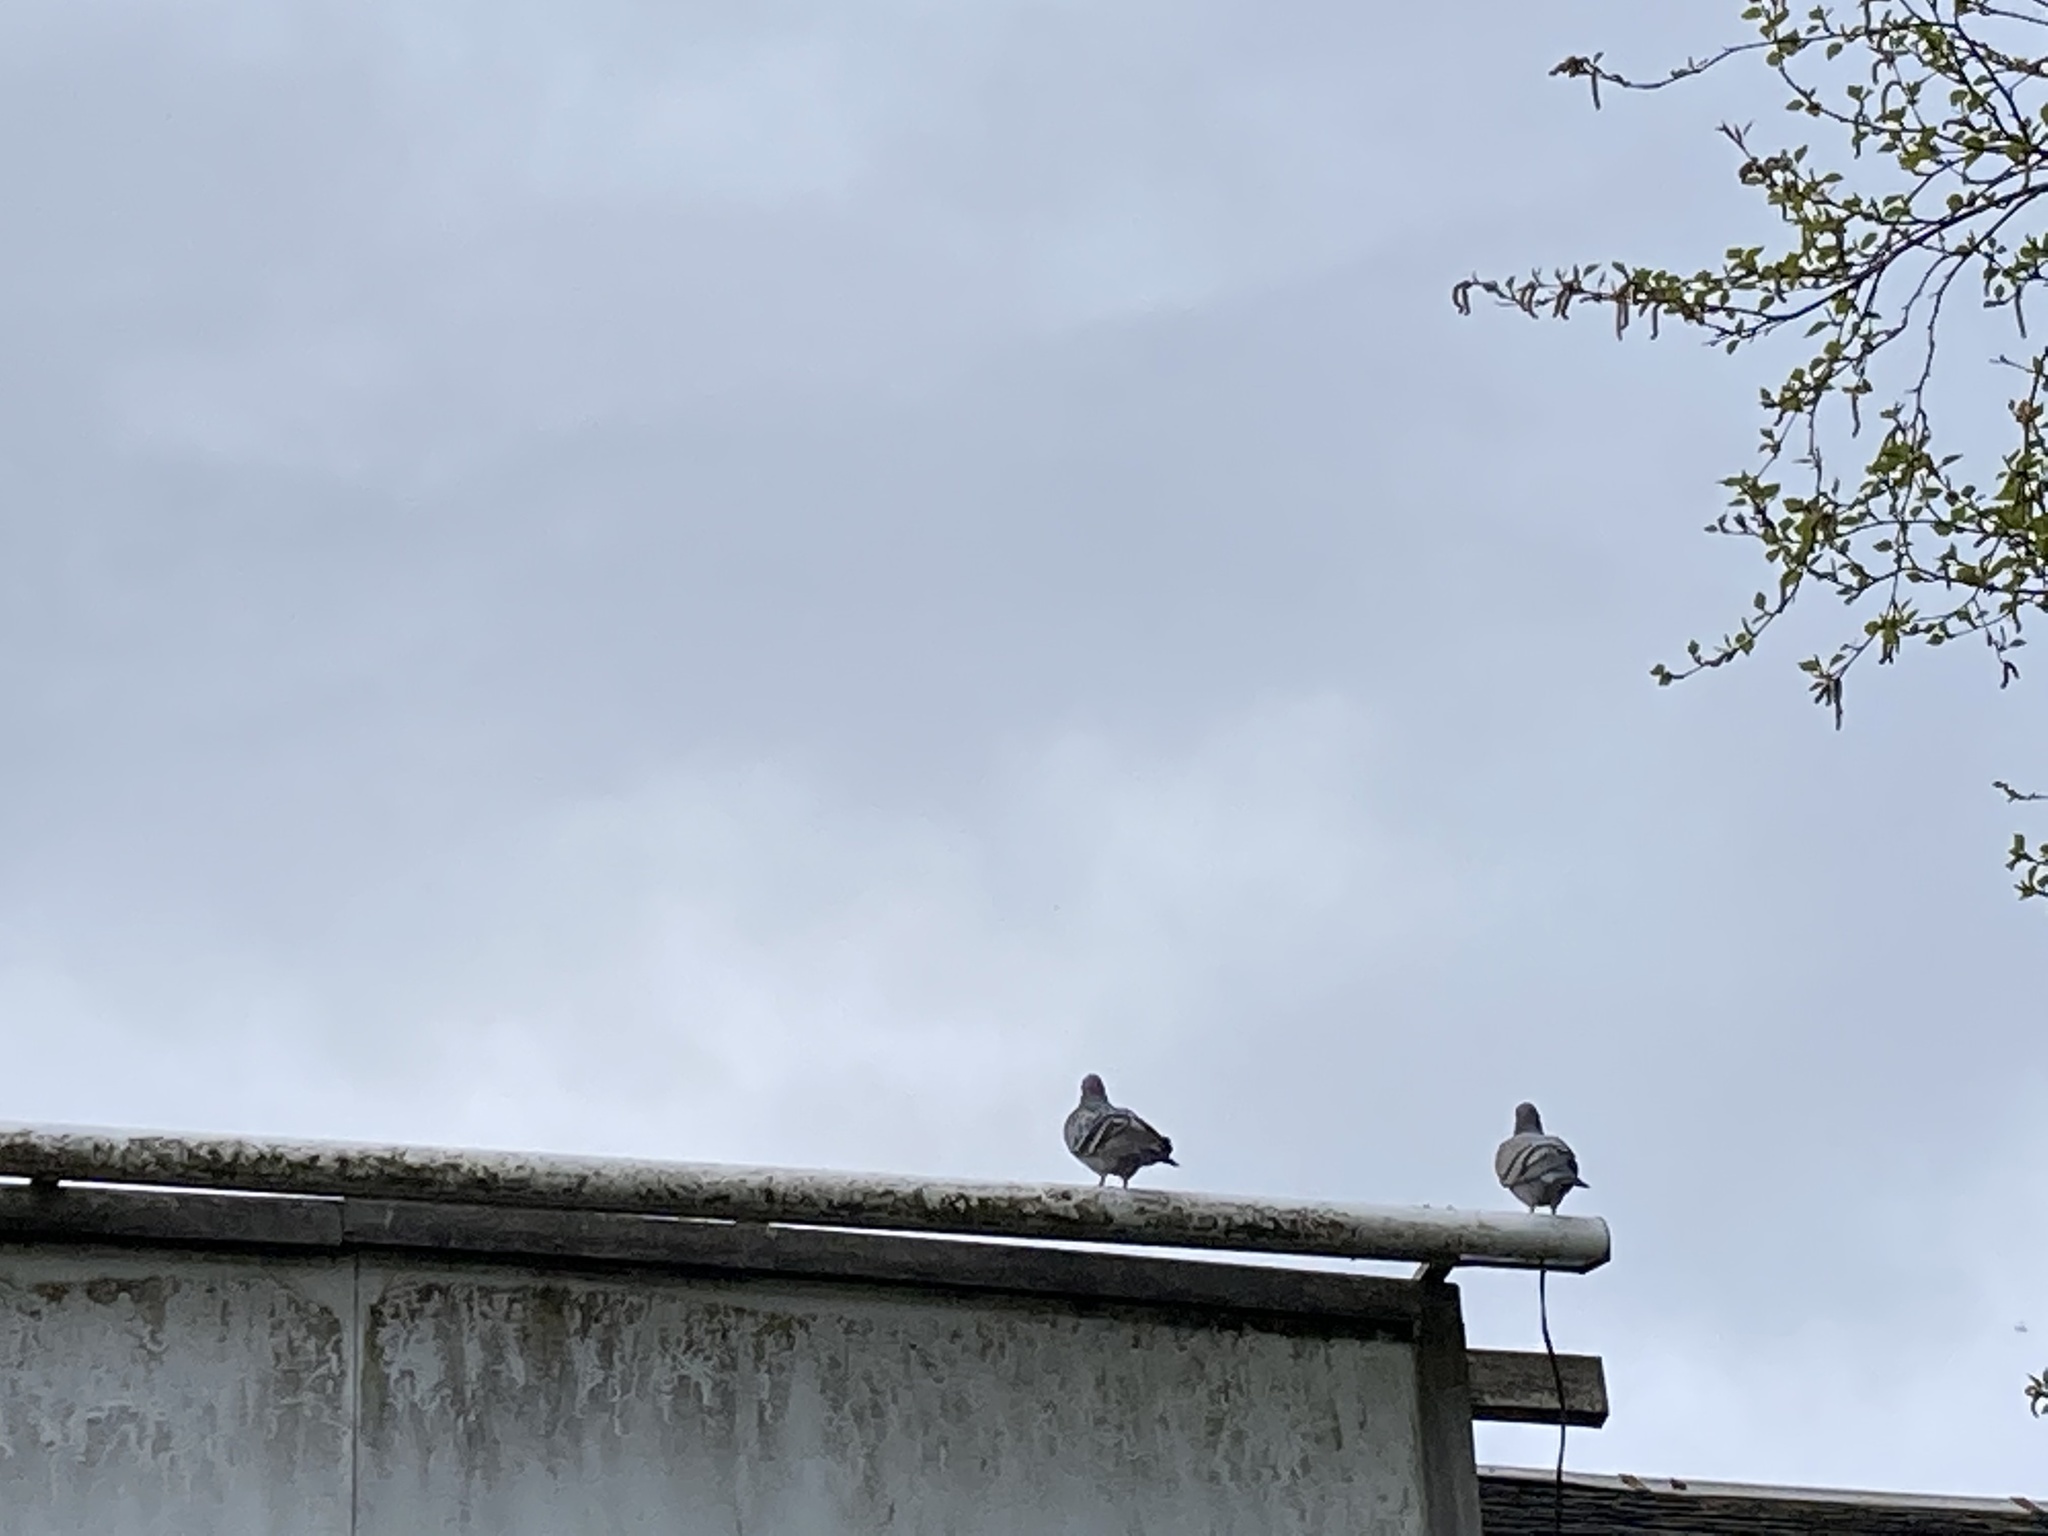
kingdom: Animalia
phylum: Chordata
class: Aves
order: Columbiformes
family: Columbidae
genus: Columba
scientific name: Columba livia
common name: Rock pigeon
